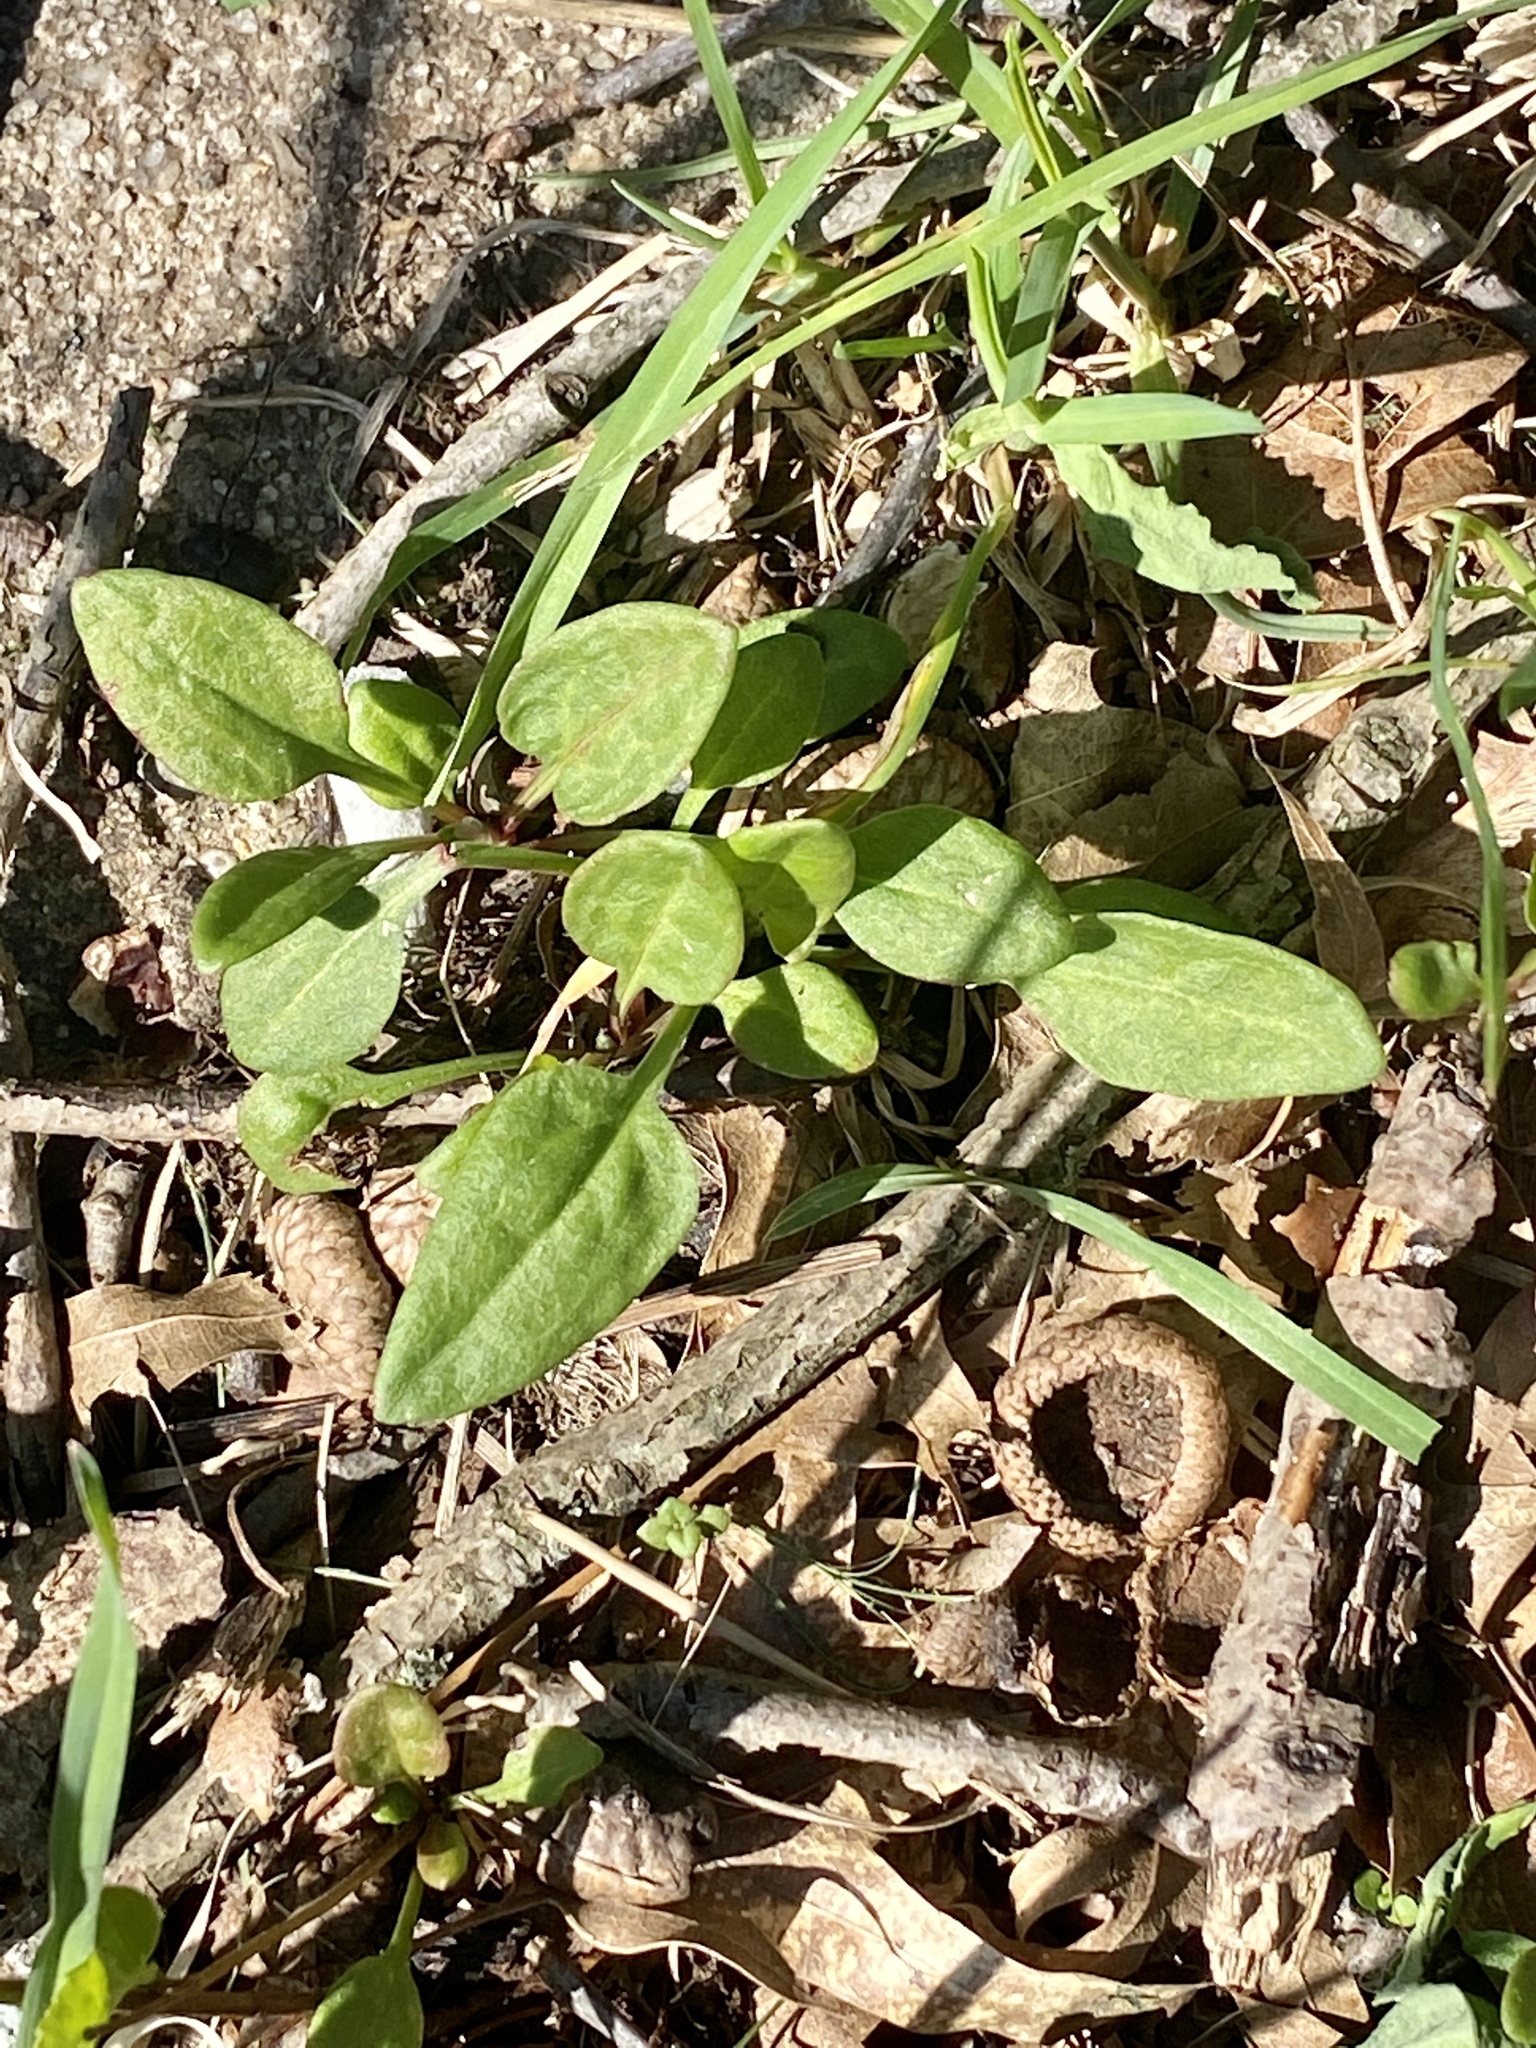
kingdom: Plantae
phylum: Tracheophyta
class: Magnoliopsida
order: Caryophyllales
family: Polygonaceae
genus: Rumex
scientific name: Rumex acetosella
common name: Common sheep sorrel
